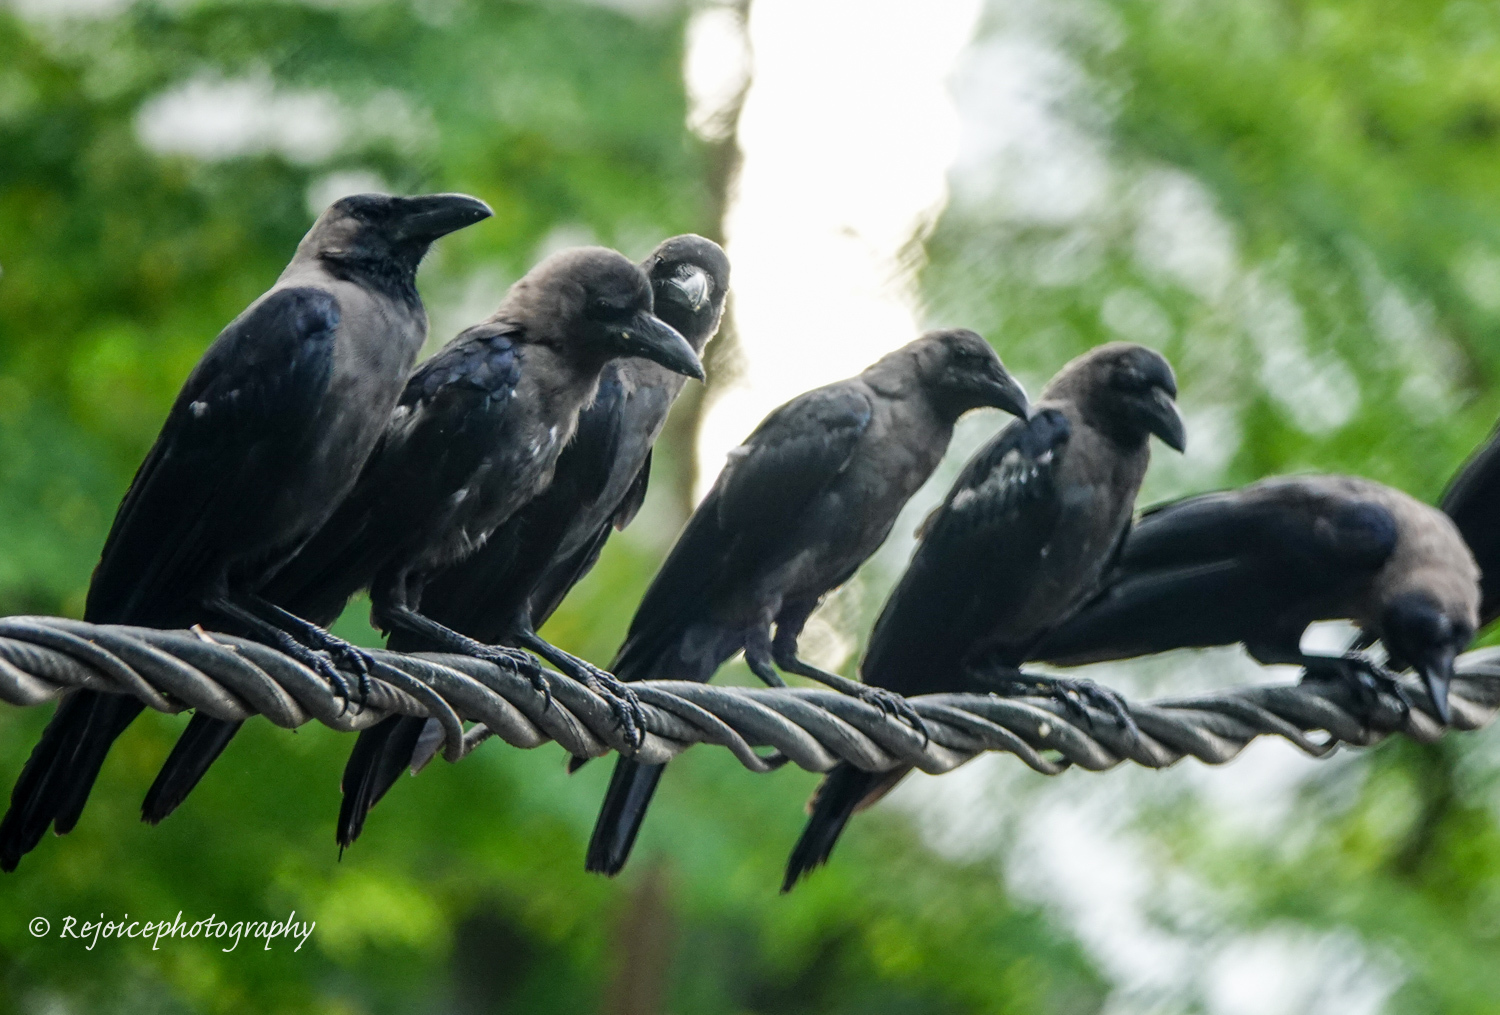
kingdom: Animalia
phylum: Chordata
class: Aves
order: Passeriformes
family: Corvidae
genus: Corvus
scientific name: Corvus splendens
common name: House crow
